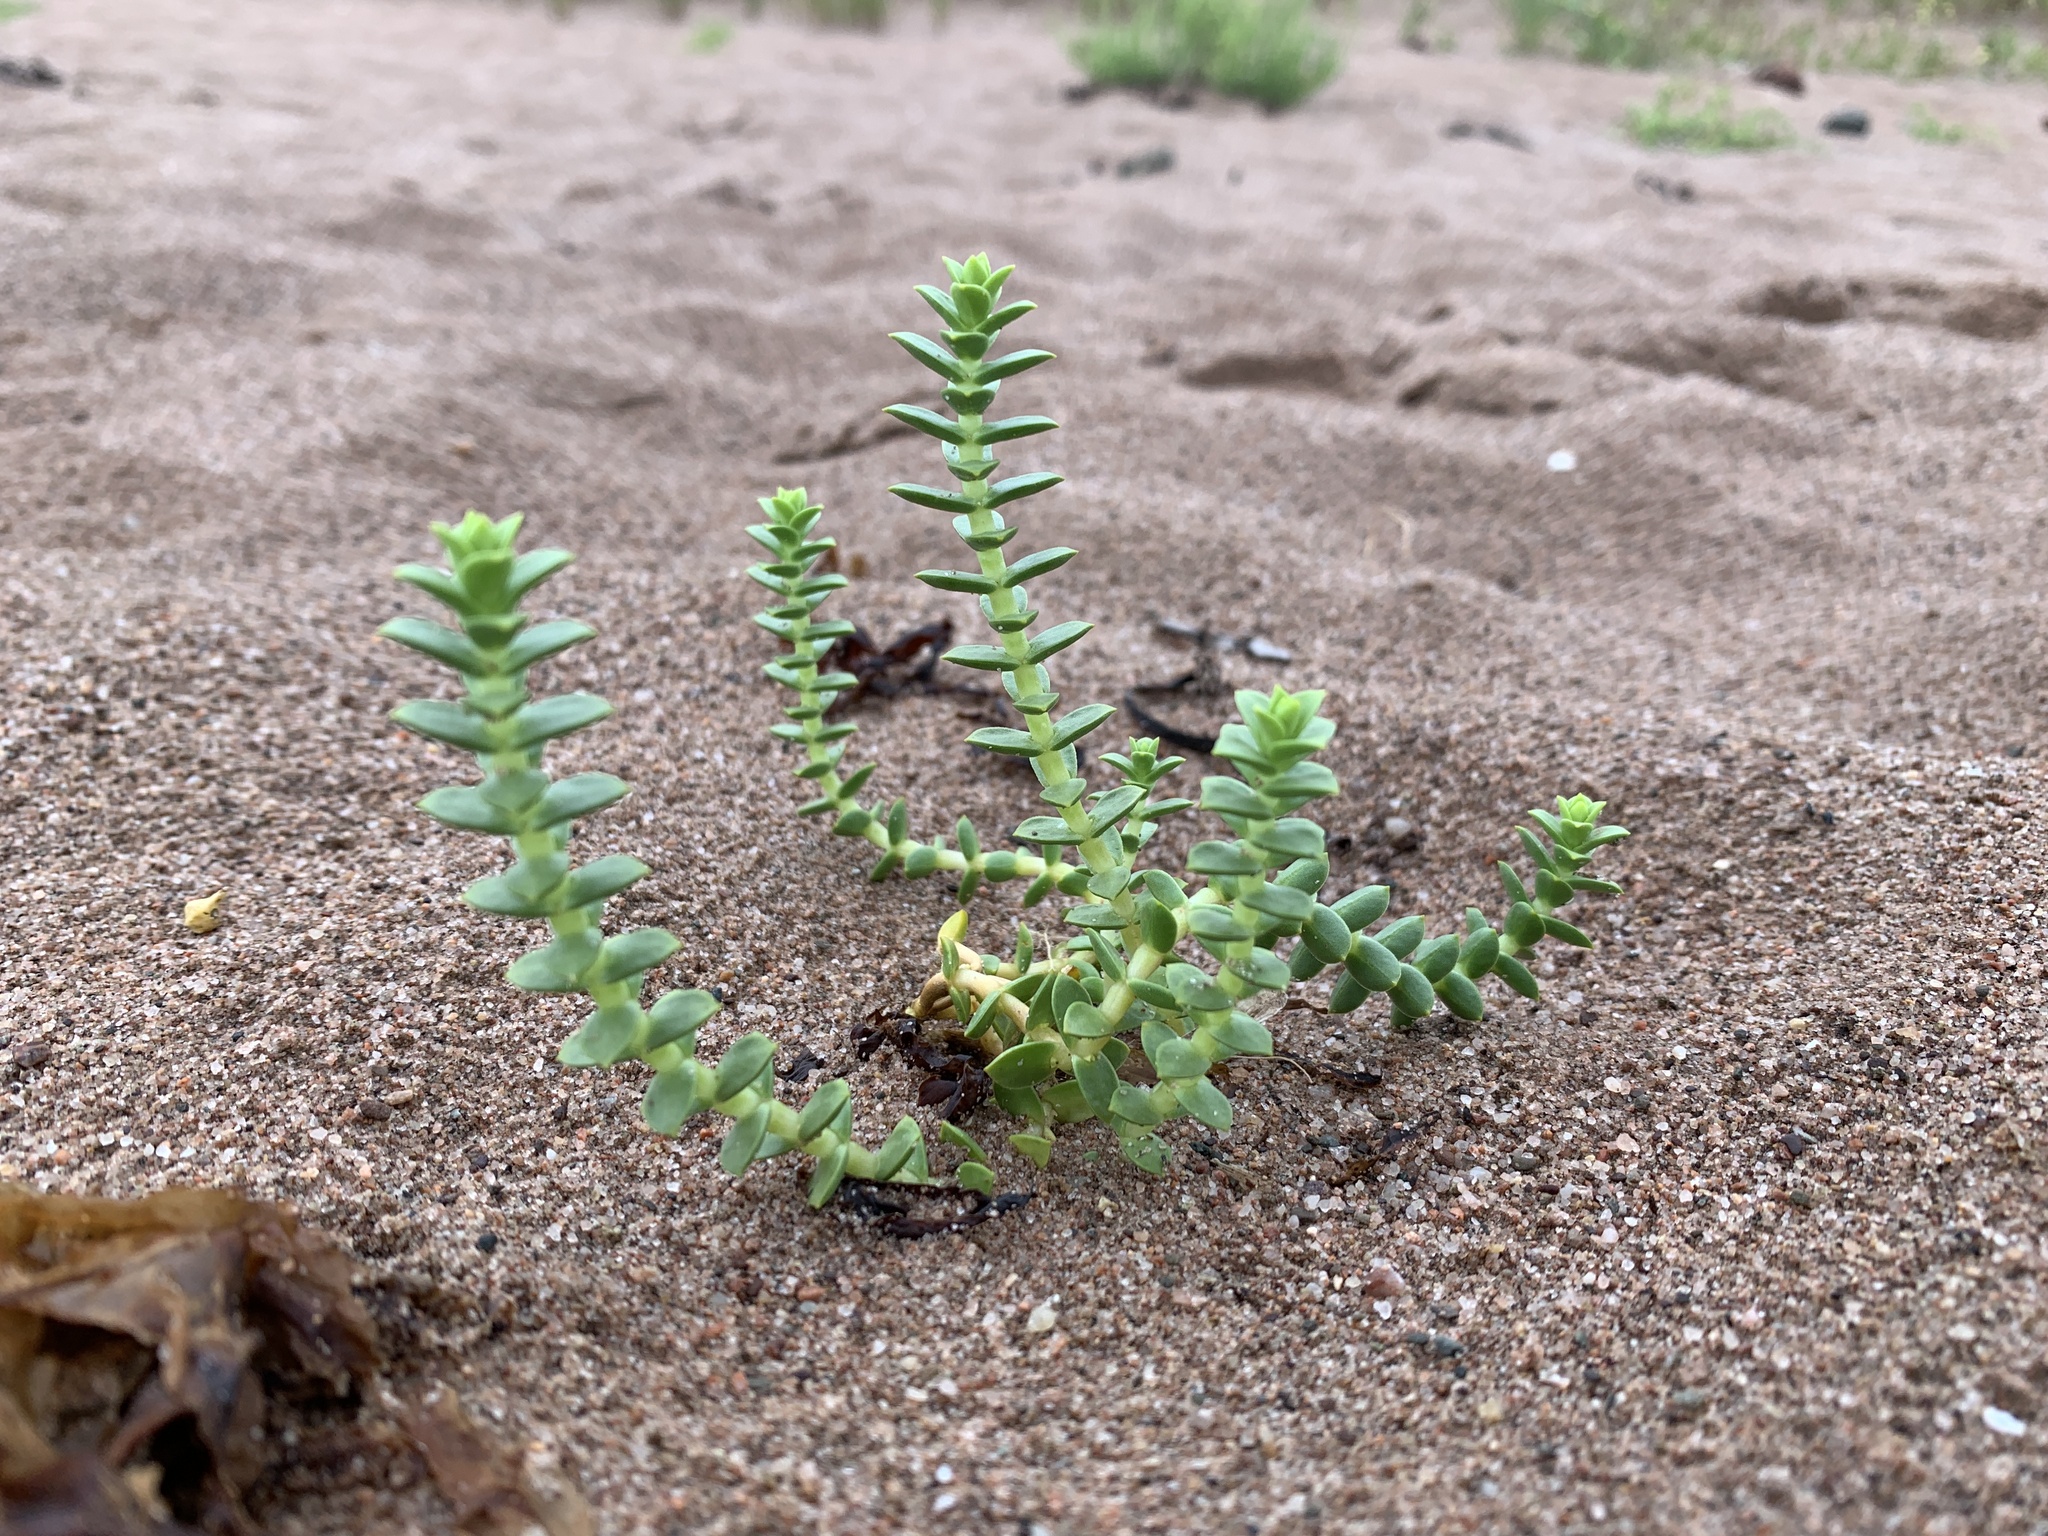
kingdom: Plantae
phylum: Tracheophyta
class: Magnoliopsida
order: Caryophyllales
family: Caryophyllaceae
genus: Honckenya
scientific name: Honckenya peploides
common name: Sea sandwort
